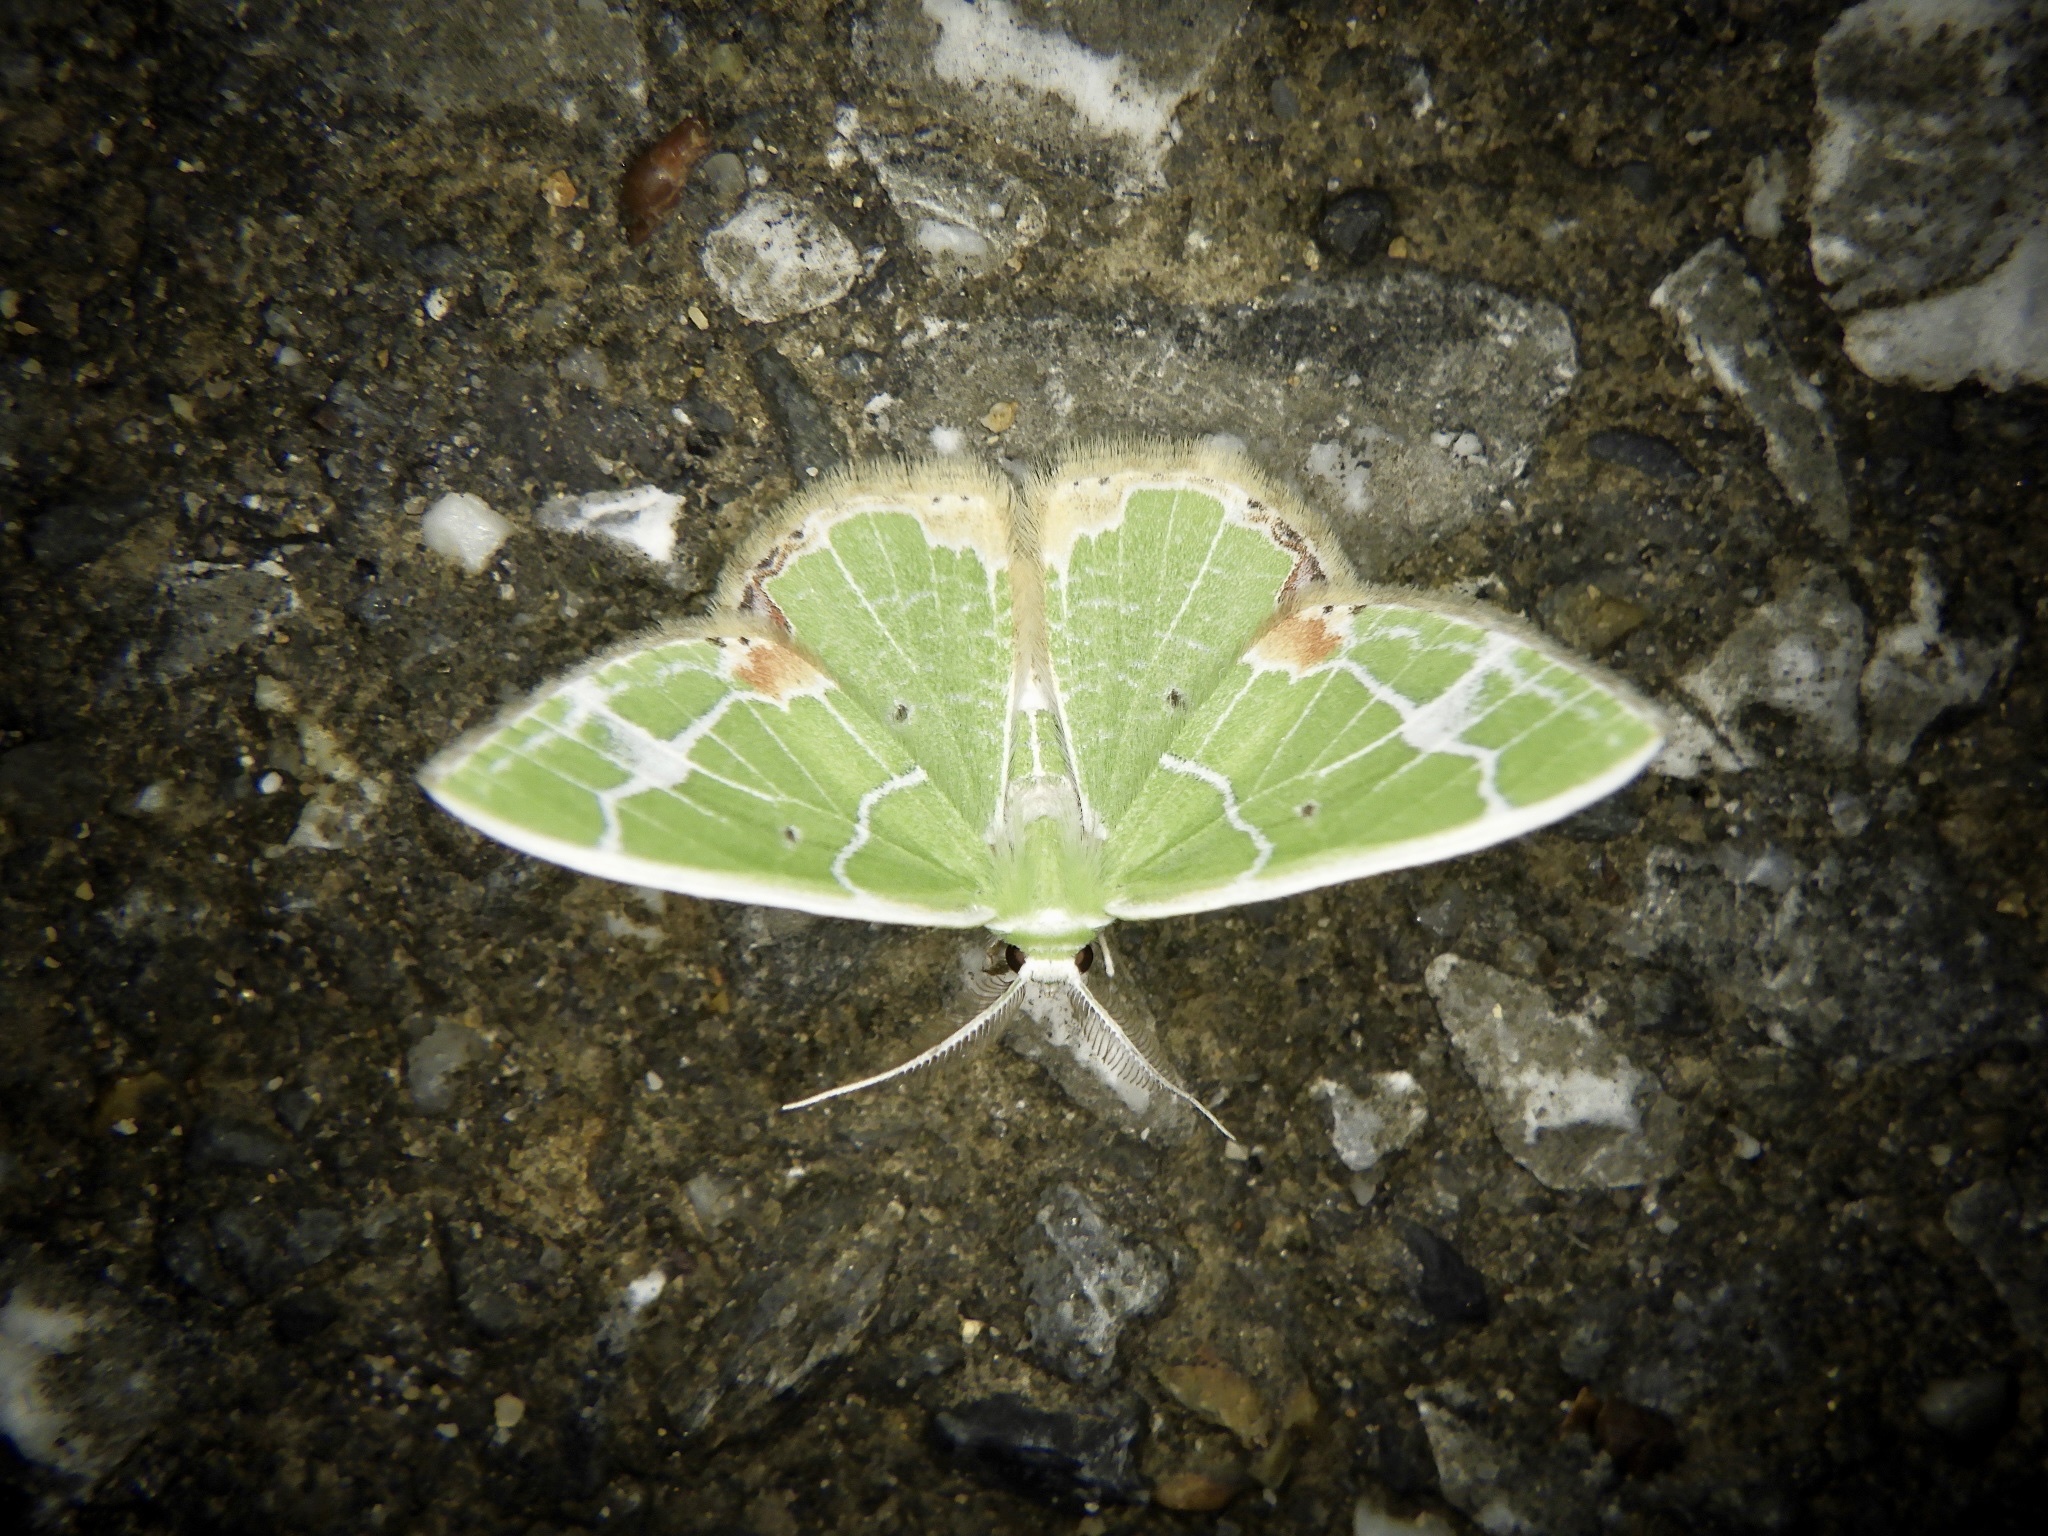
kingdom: Animalia
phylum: Arthropoda
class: Insecta
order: Lepidoptera
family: Geometridae
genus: Comibaena
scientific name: Comibaena nigromacularia
